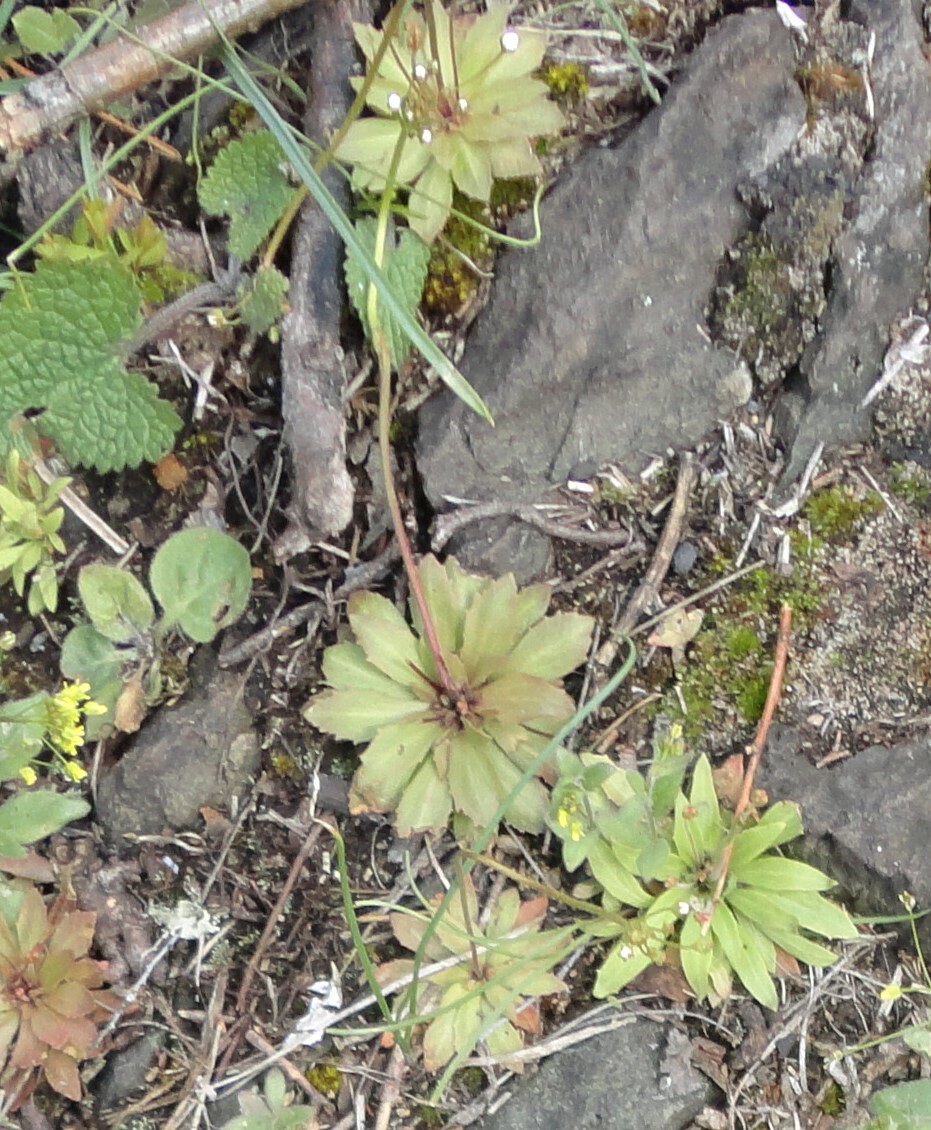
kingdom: Plantae
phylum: Tracheophyta
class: Magnoliopsida
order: Ericales
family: Primulaceae
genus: Androsace
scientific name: Androsace septentrionalis
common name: Hairy northern fairy-candelabra
